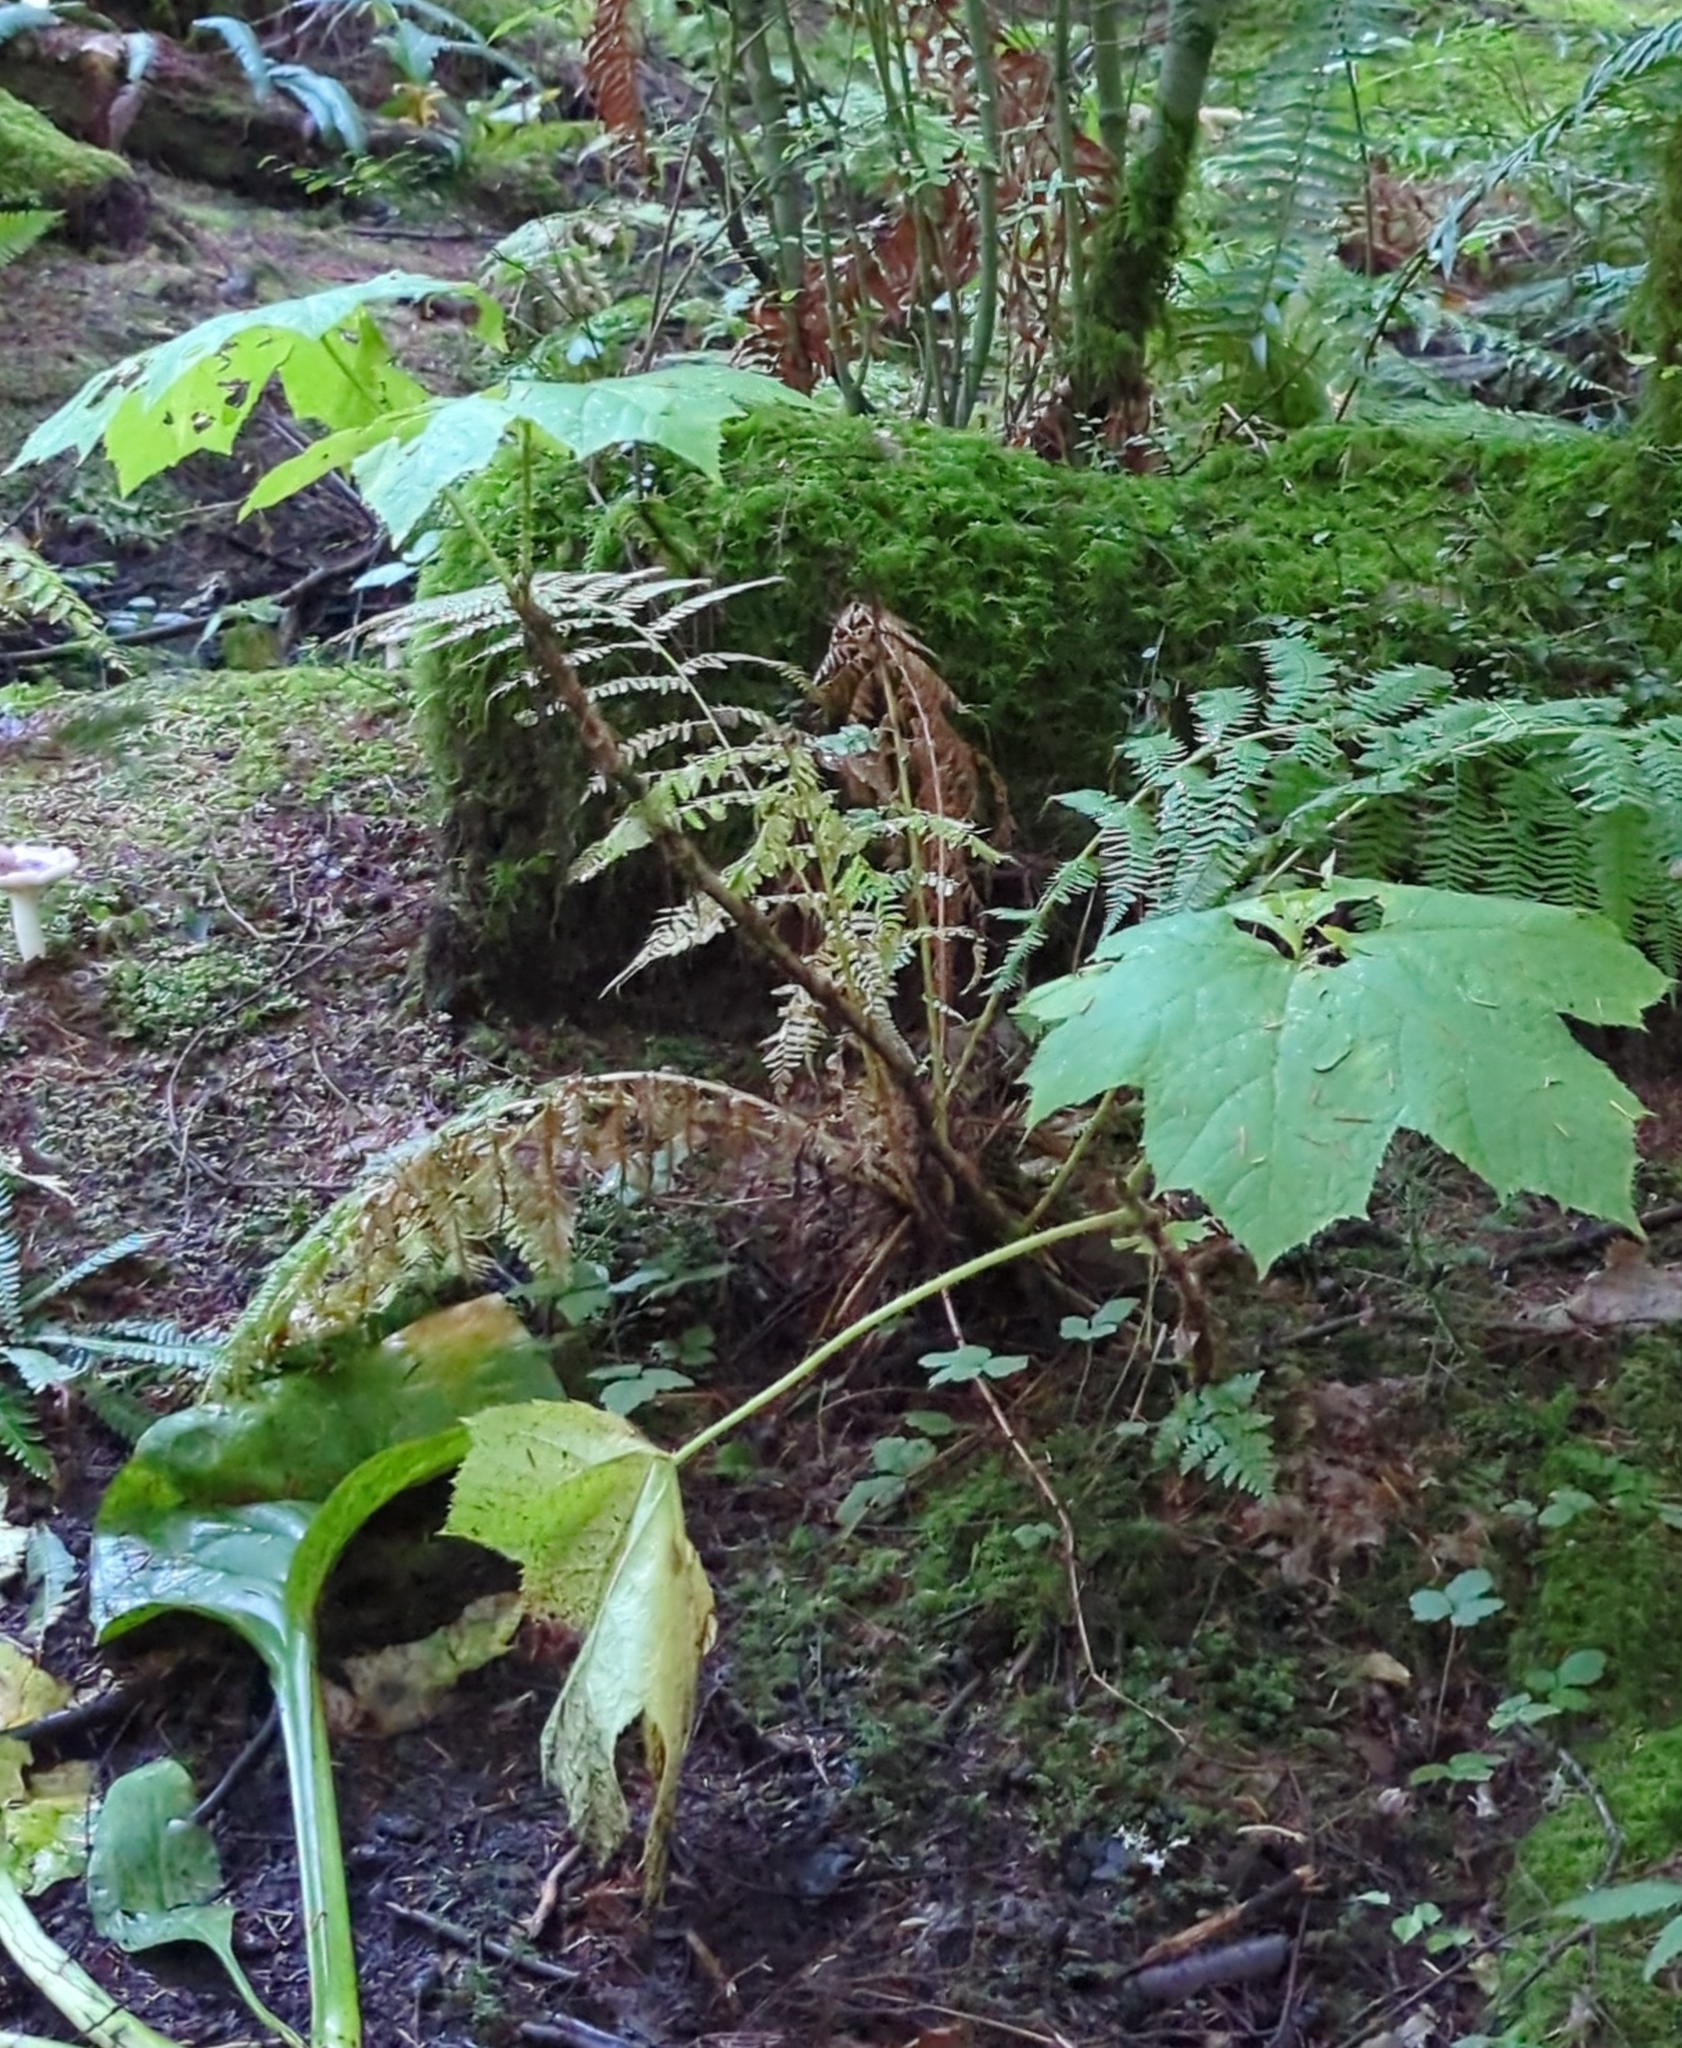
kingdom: Plantae
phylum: Tracheophyta
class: Magnoliopsida
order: Apiales
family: Araliaceae
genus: Oplopanax
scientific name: Oplopanax horridus
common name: Devil's walking-stick
